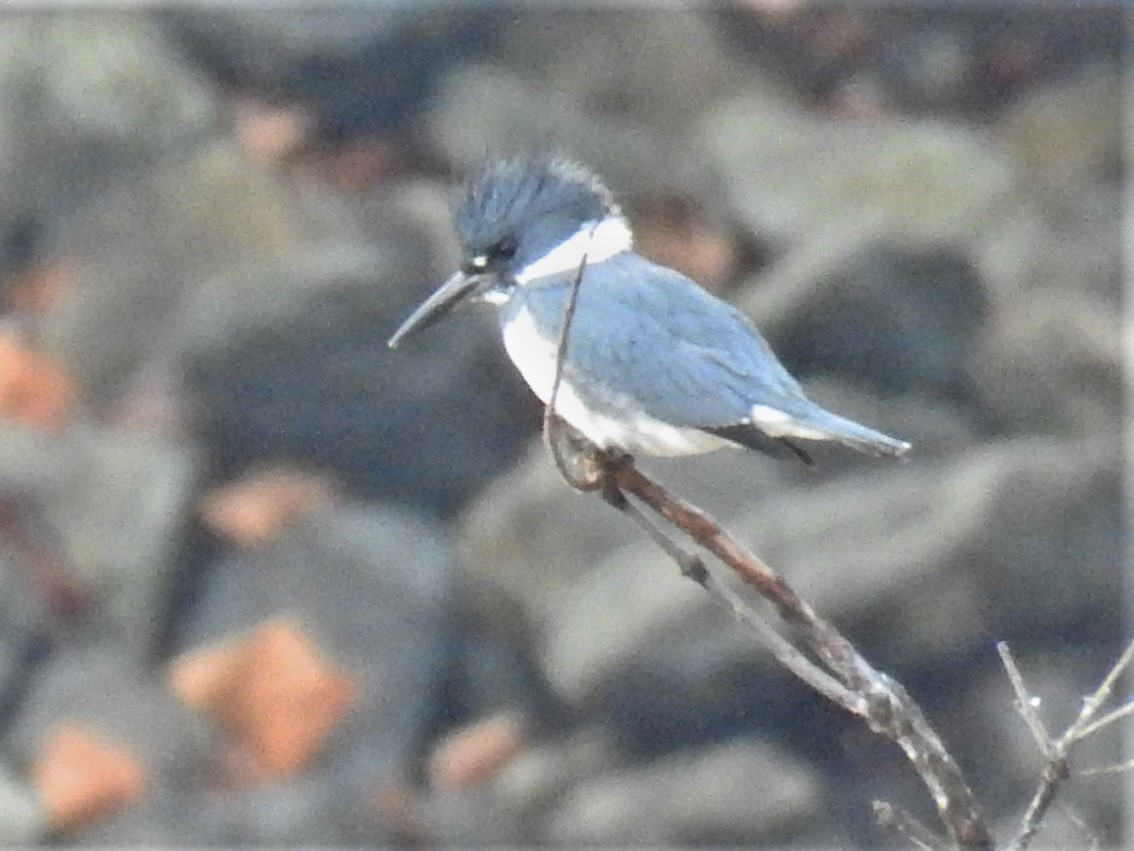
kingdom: Animalia
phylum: Chordata
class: Aves
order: Coraciiformes
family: Alcedinidae
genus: Megaceryle
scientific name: Megaceryle alcyon
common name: Belted kingfisher
